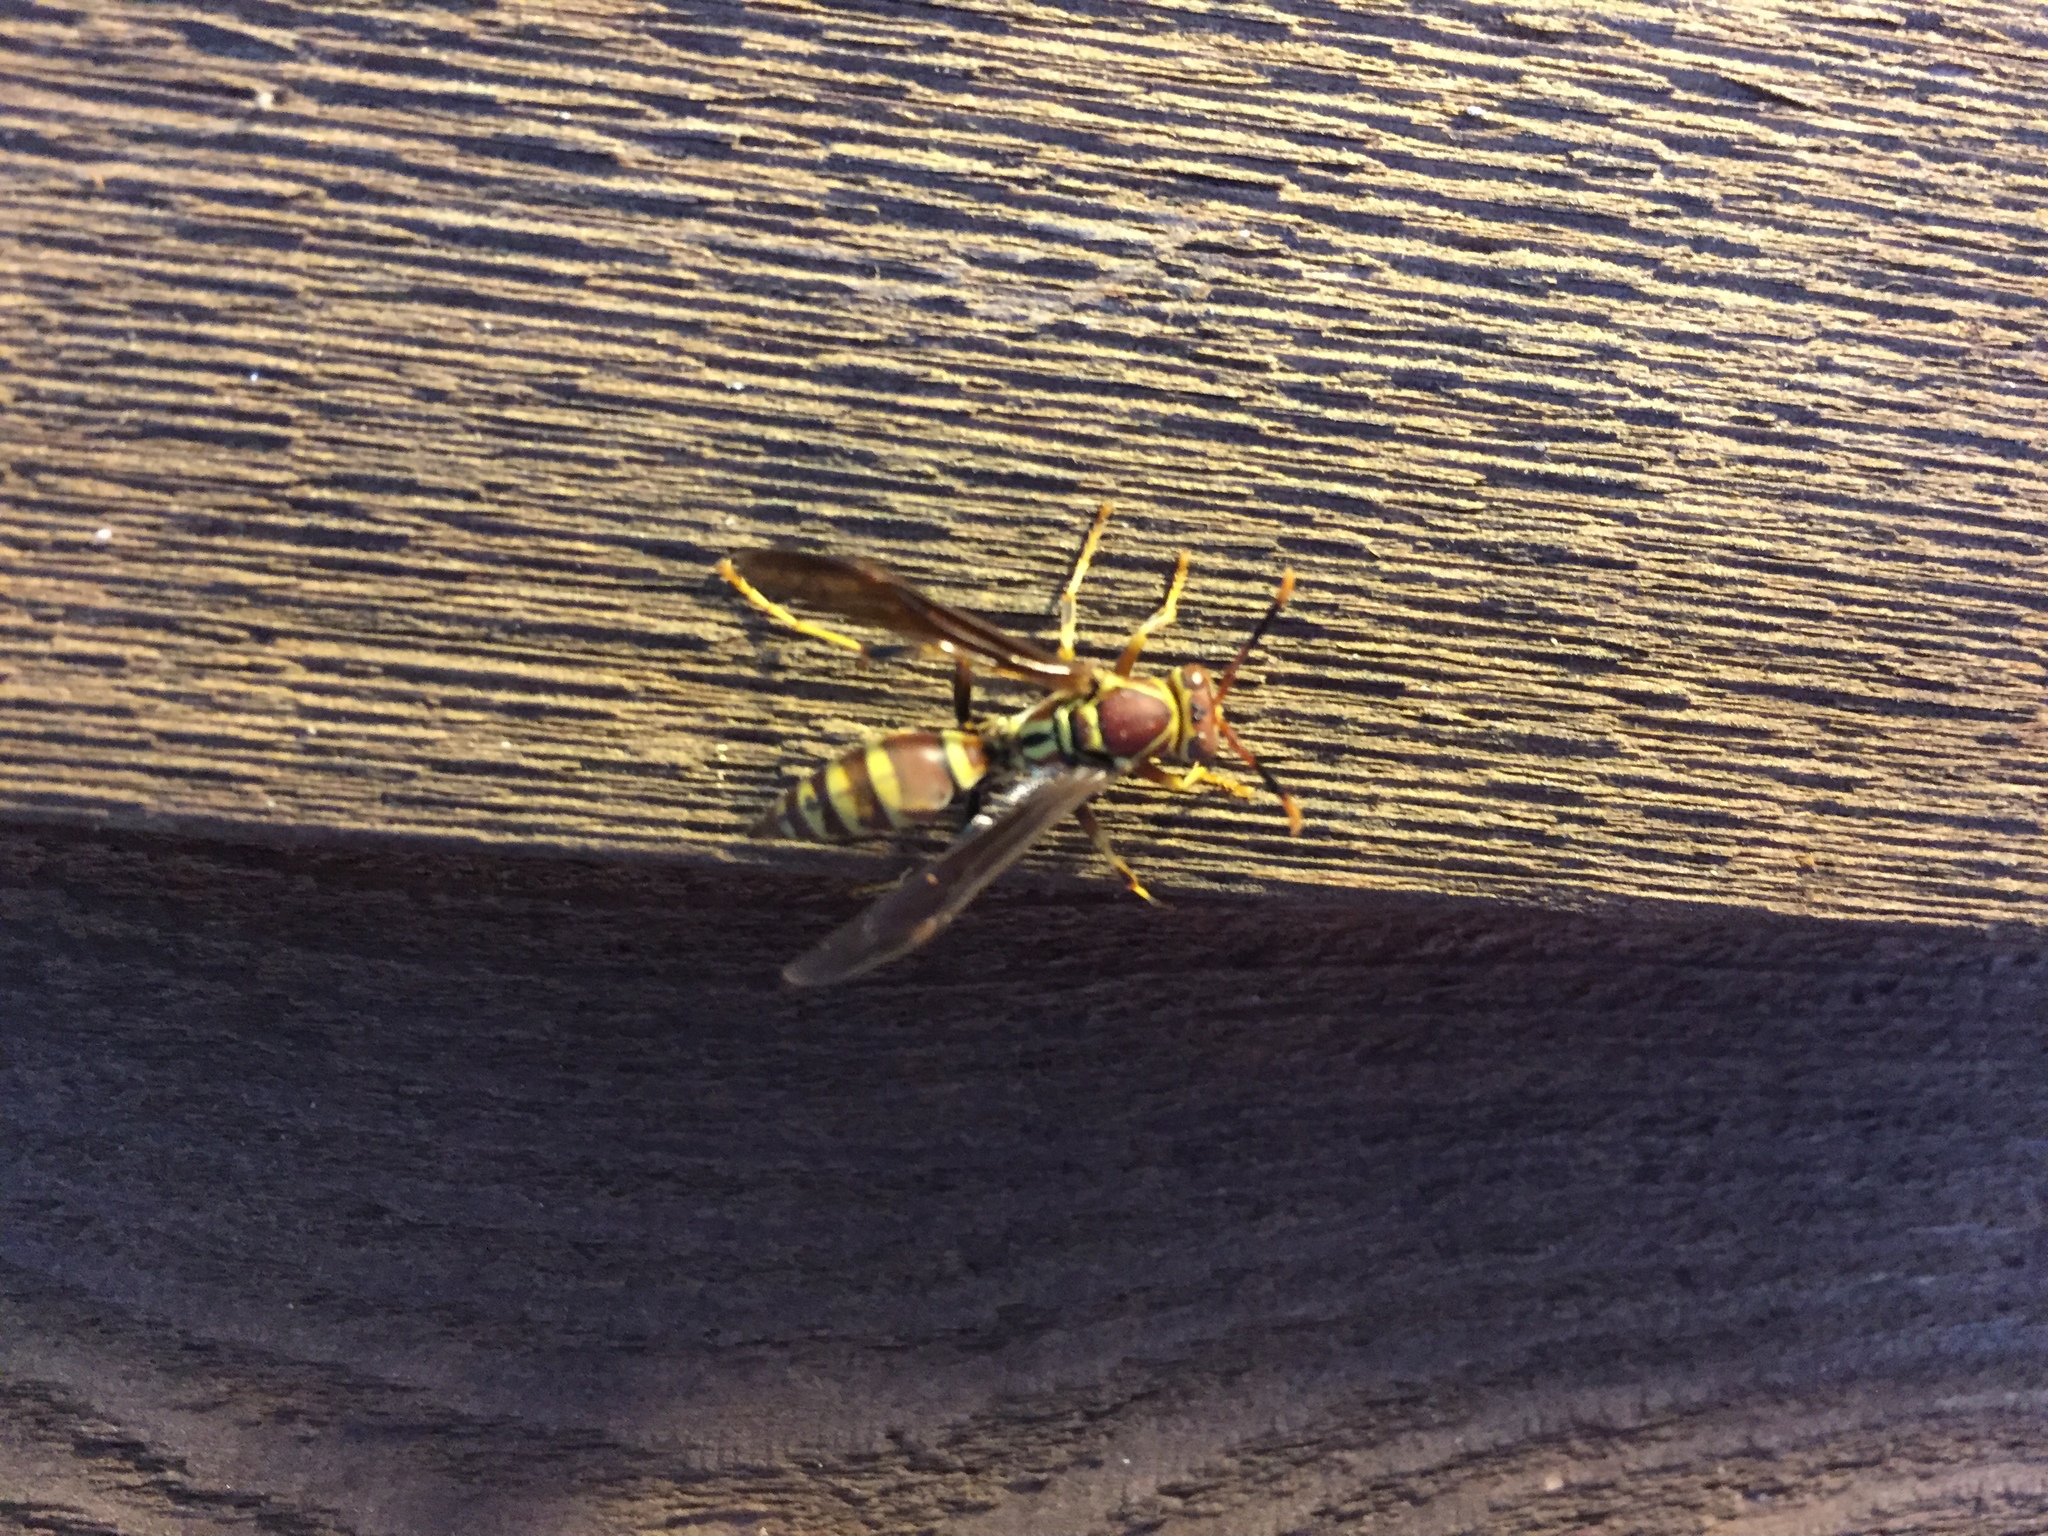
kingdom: Animalia
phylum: Arthropoda
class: Insecta
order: Hymenoptera
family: Eumenidae
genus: Polistes
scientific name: Polistes exclamans
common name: Paper wasp
